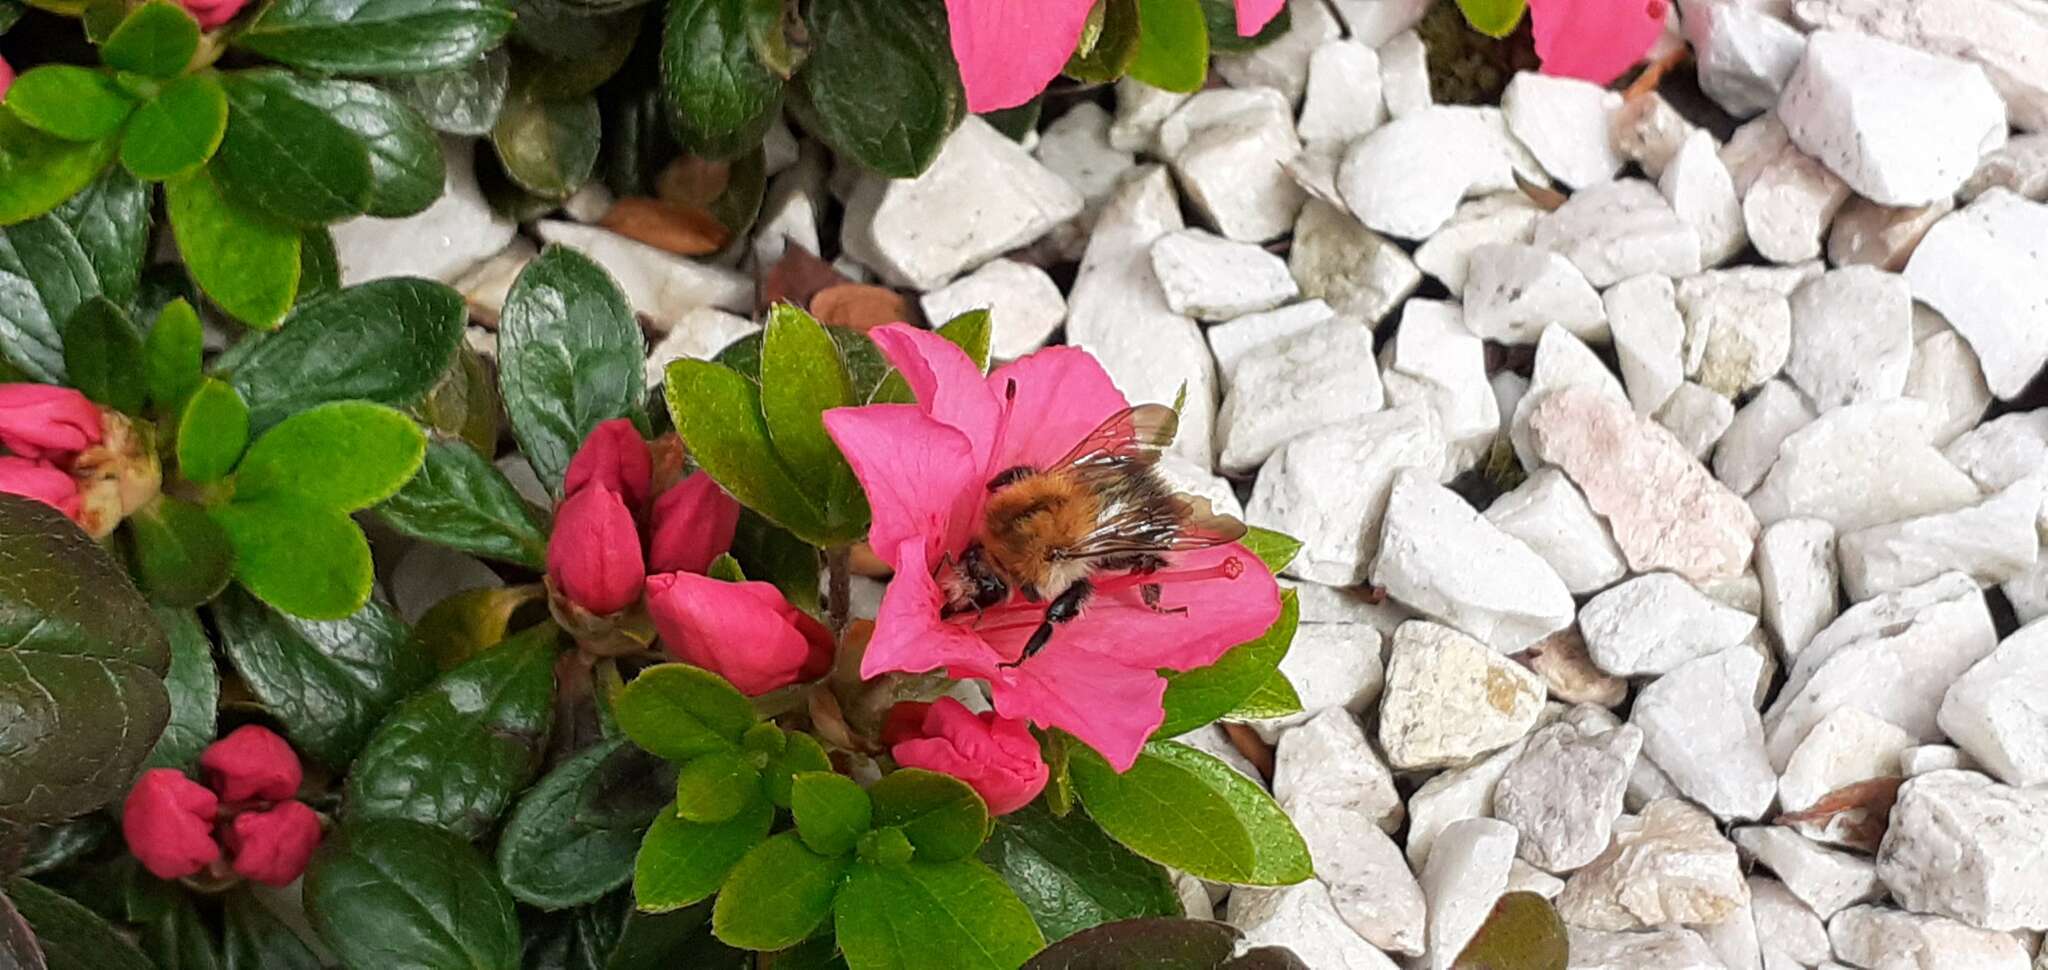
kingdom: Animalia
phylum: Arthropoda
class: Insecta
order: Hymenoptera
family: Apidae
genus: Bombus
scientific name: Bombus pascuorum
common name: Common carder bee
